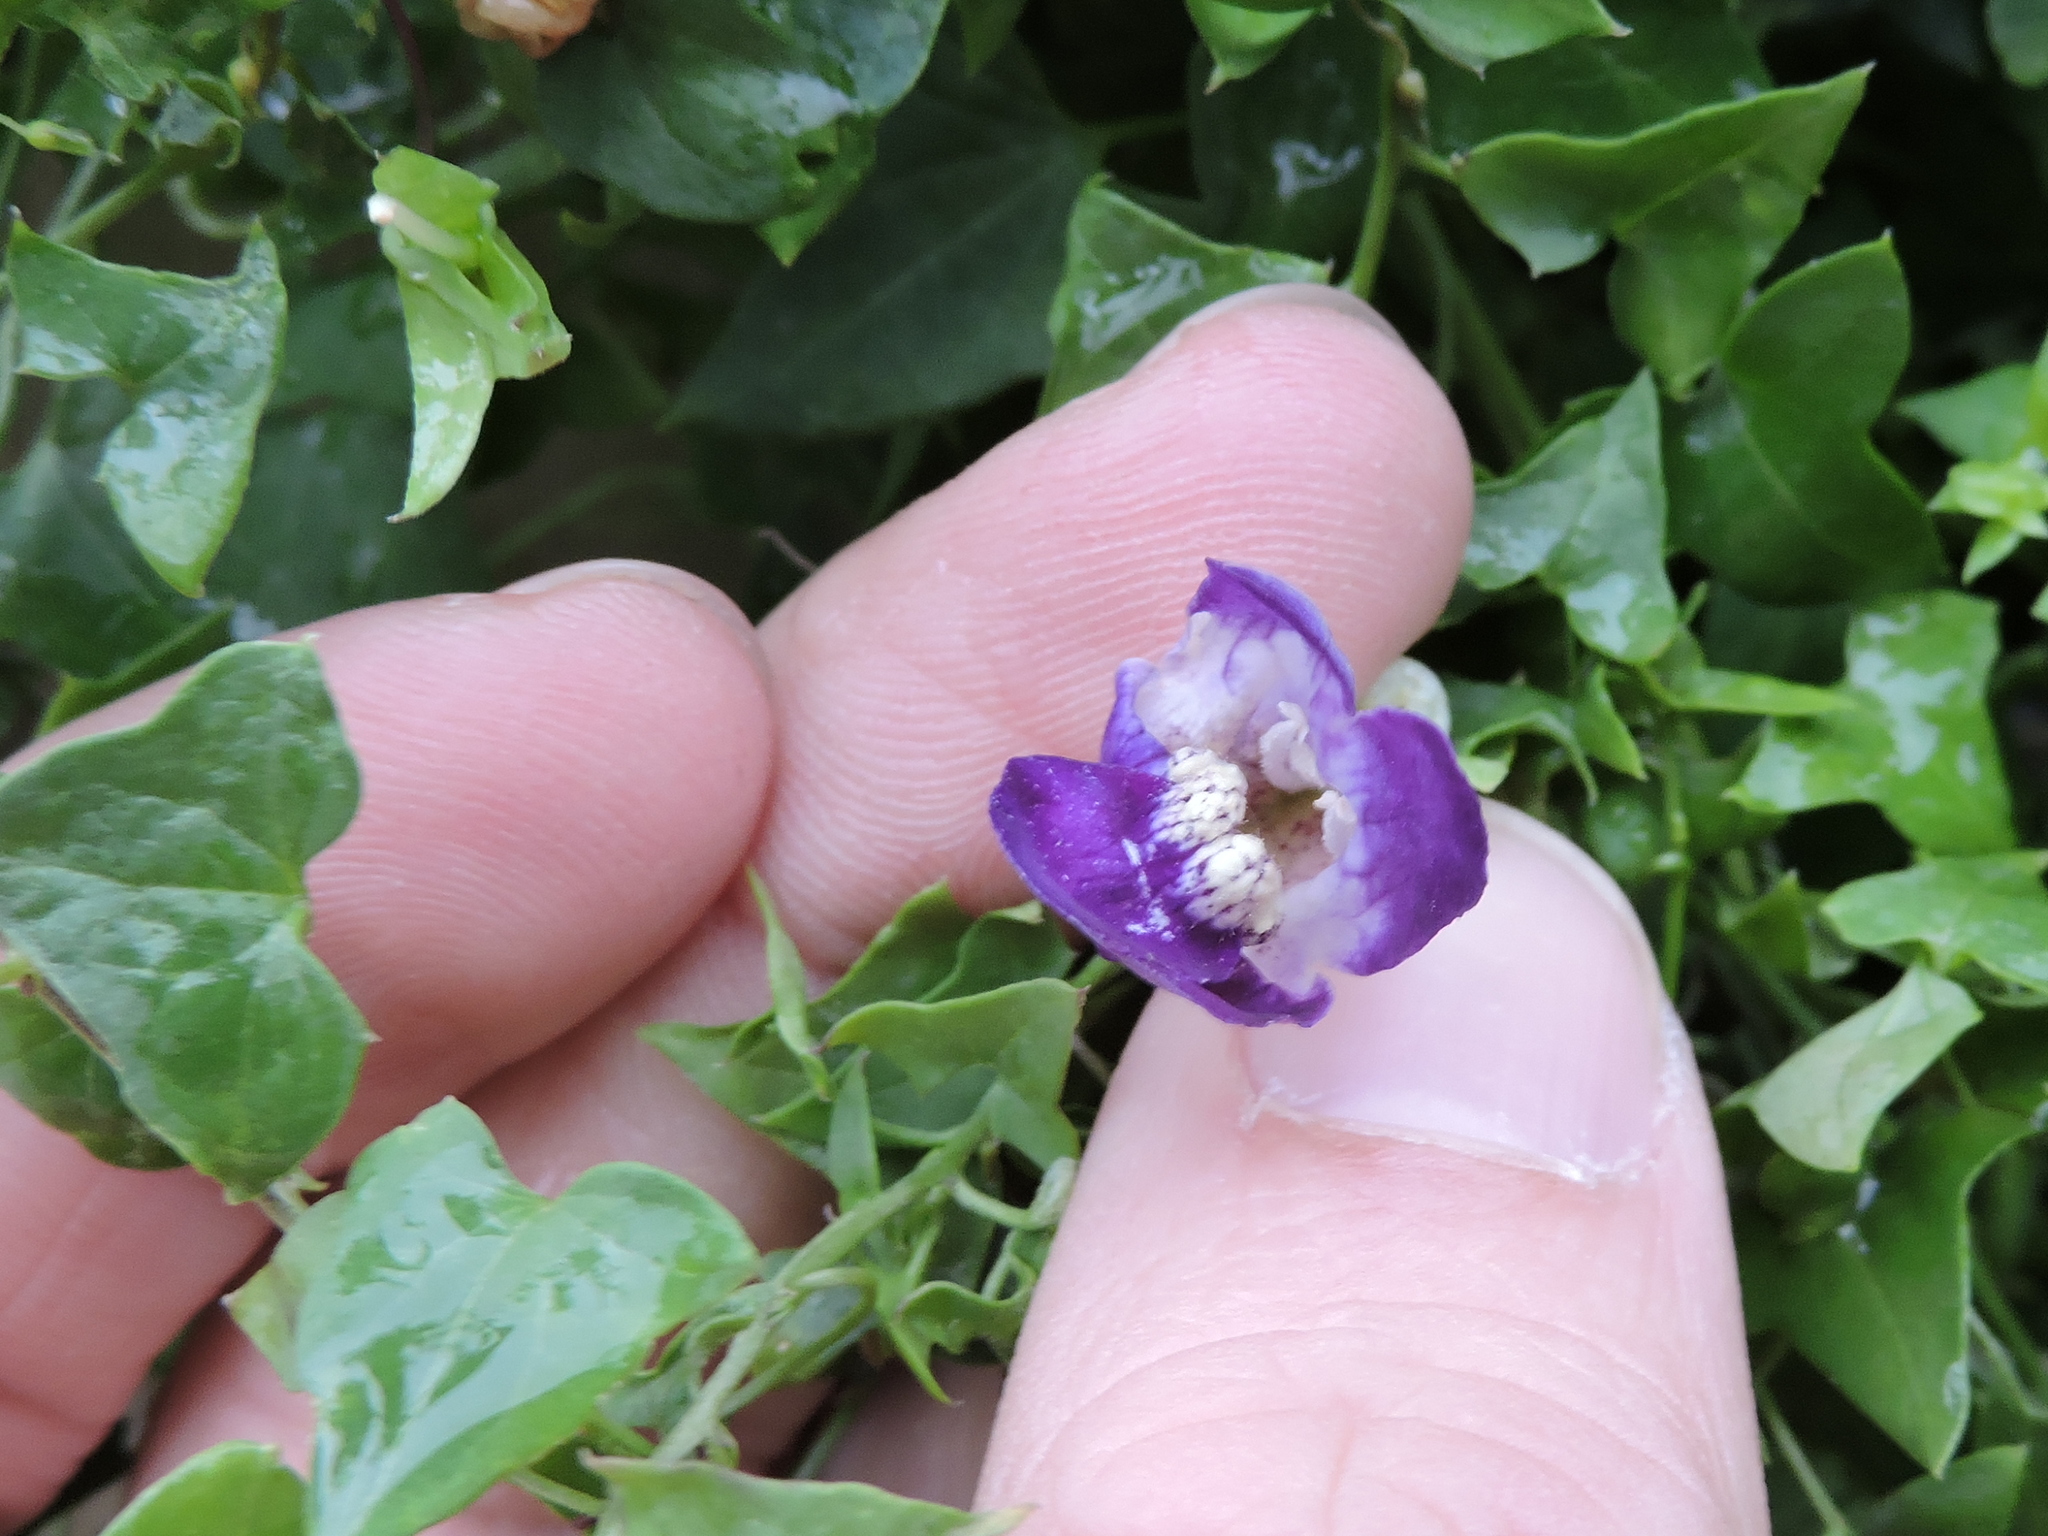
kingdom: Plantae
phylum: Tracheophyta
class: Magnoliopsida
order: Lamiales
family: Plantaginaceae
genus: Maurandella
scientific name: Maurandella antirrhiniflora
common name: Violet twining-snapdragon
